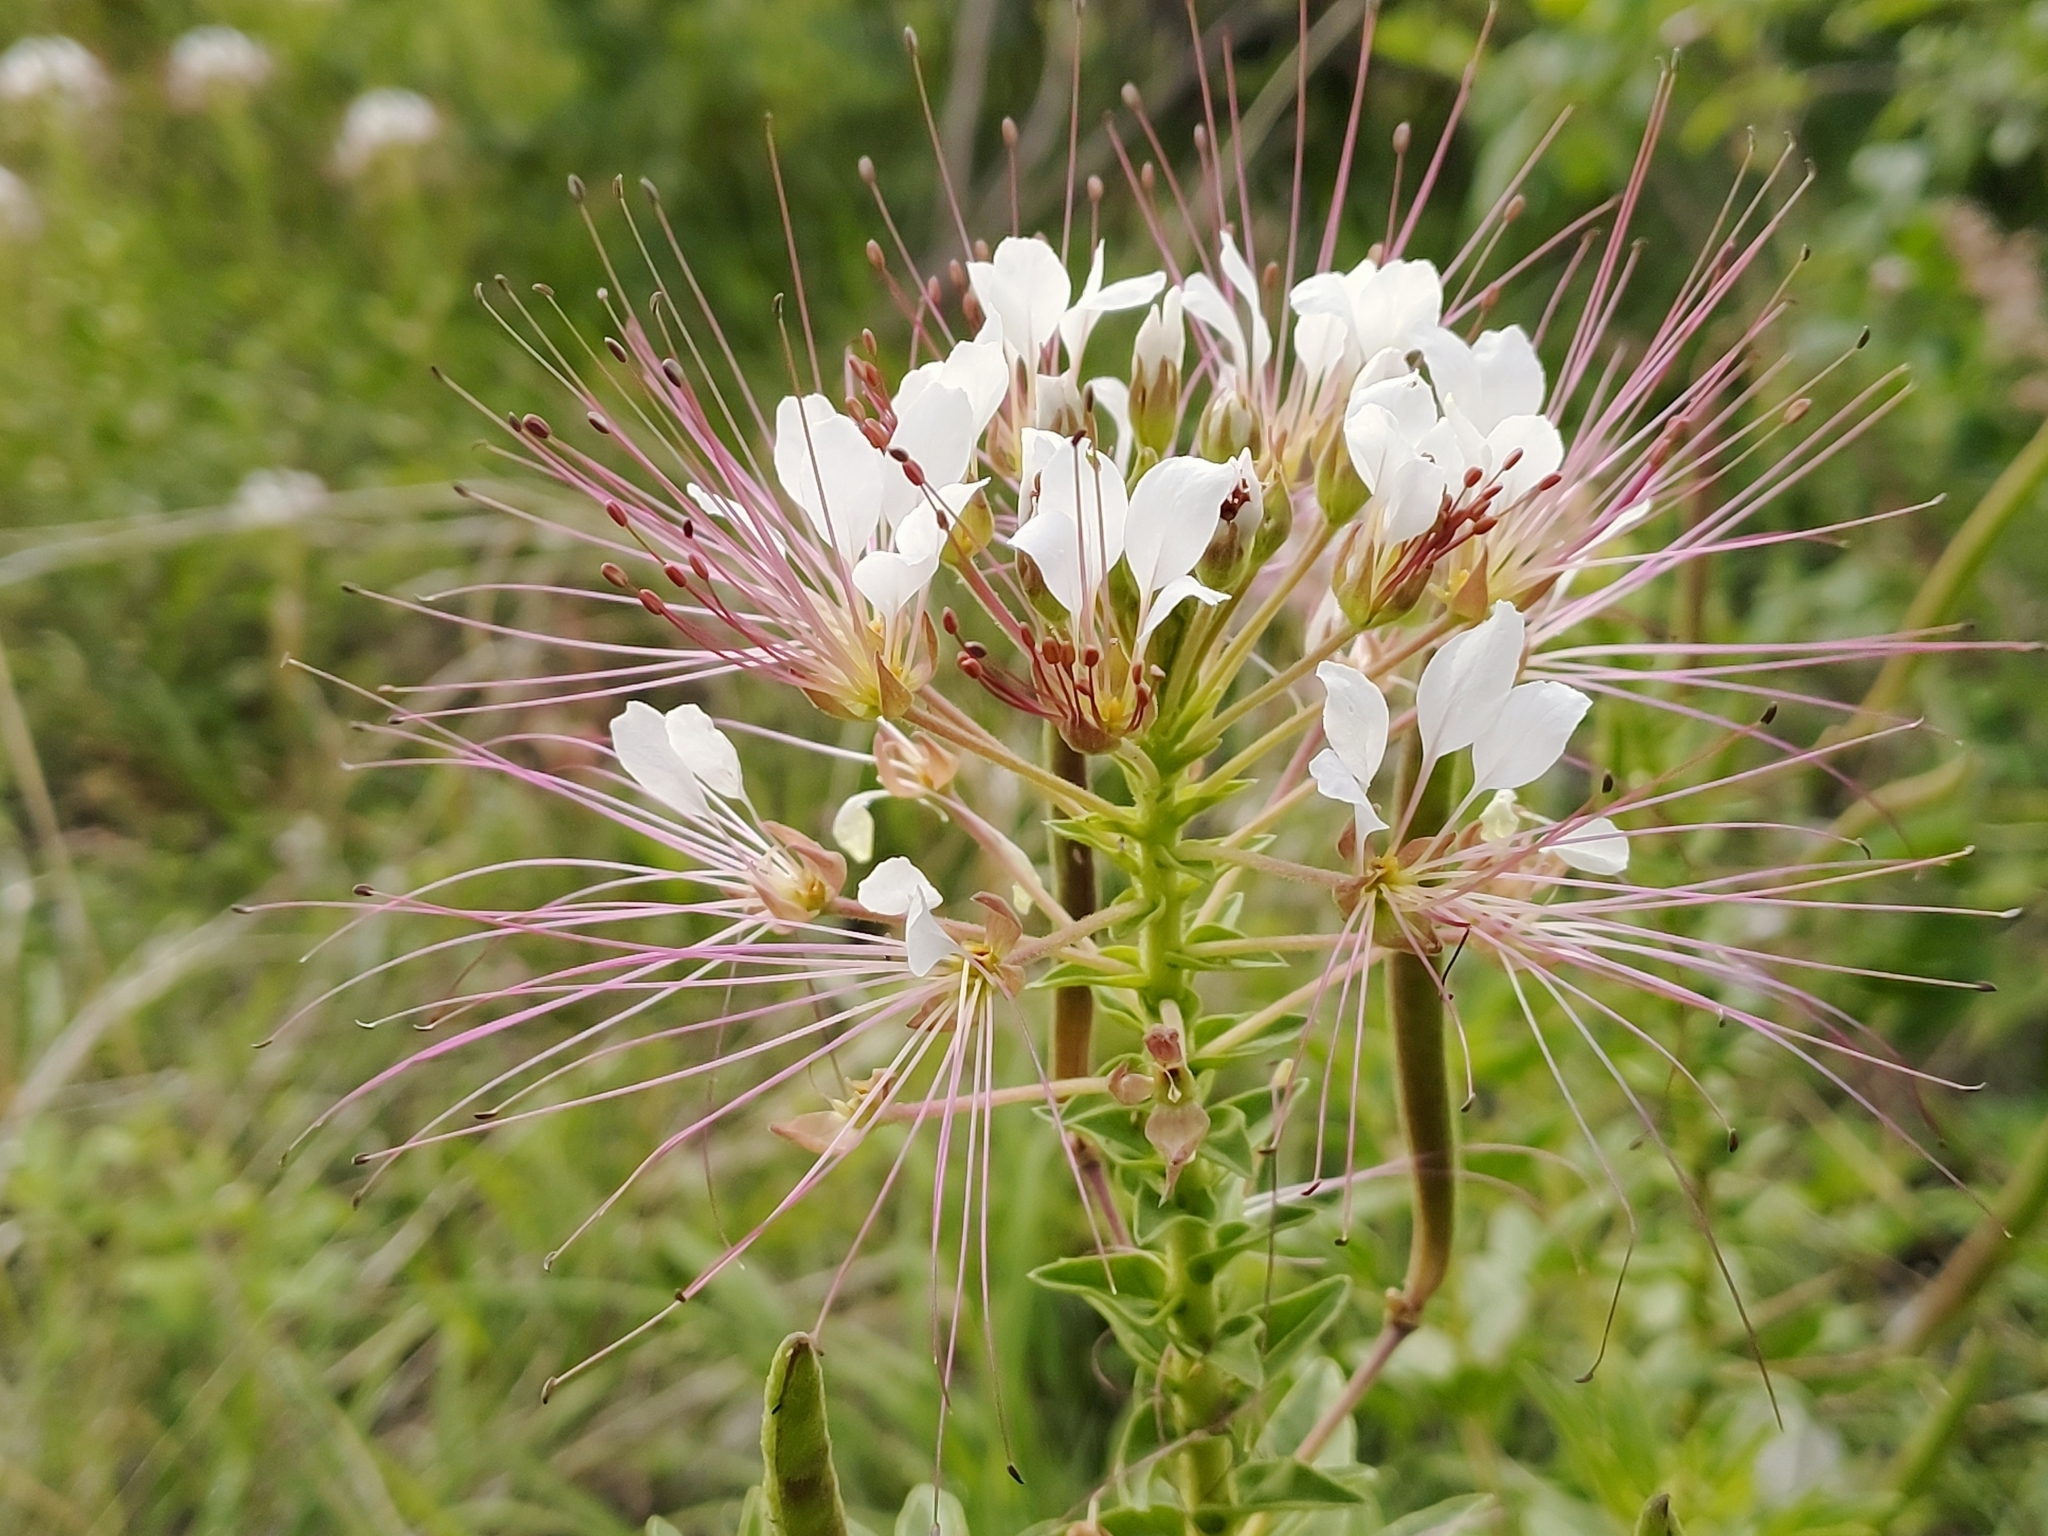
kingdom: Plantae
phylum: Tracheophyta
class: Magnoliopsida
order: Brassicales
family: Cleomaceae
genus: Polanisia
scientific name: Polanisia dodecandra
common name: Clammyweed
